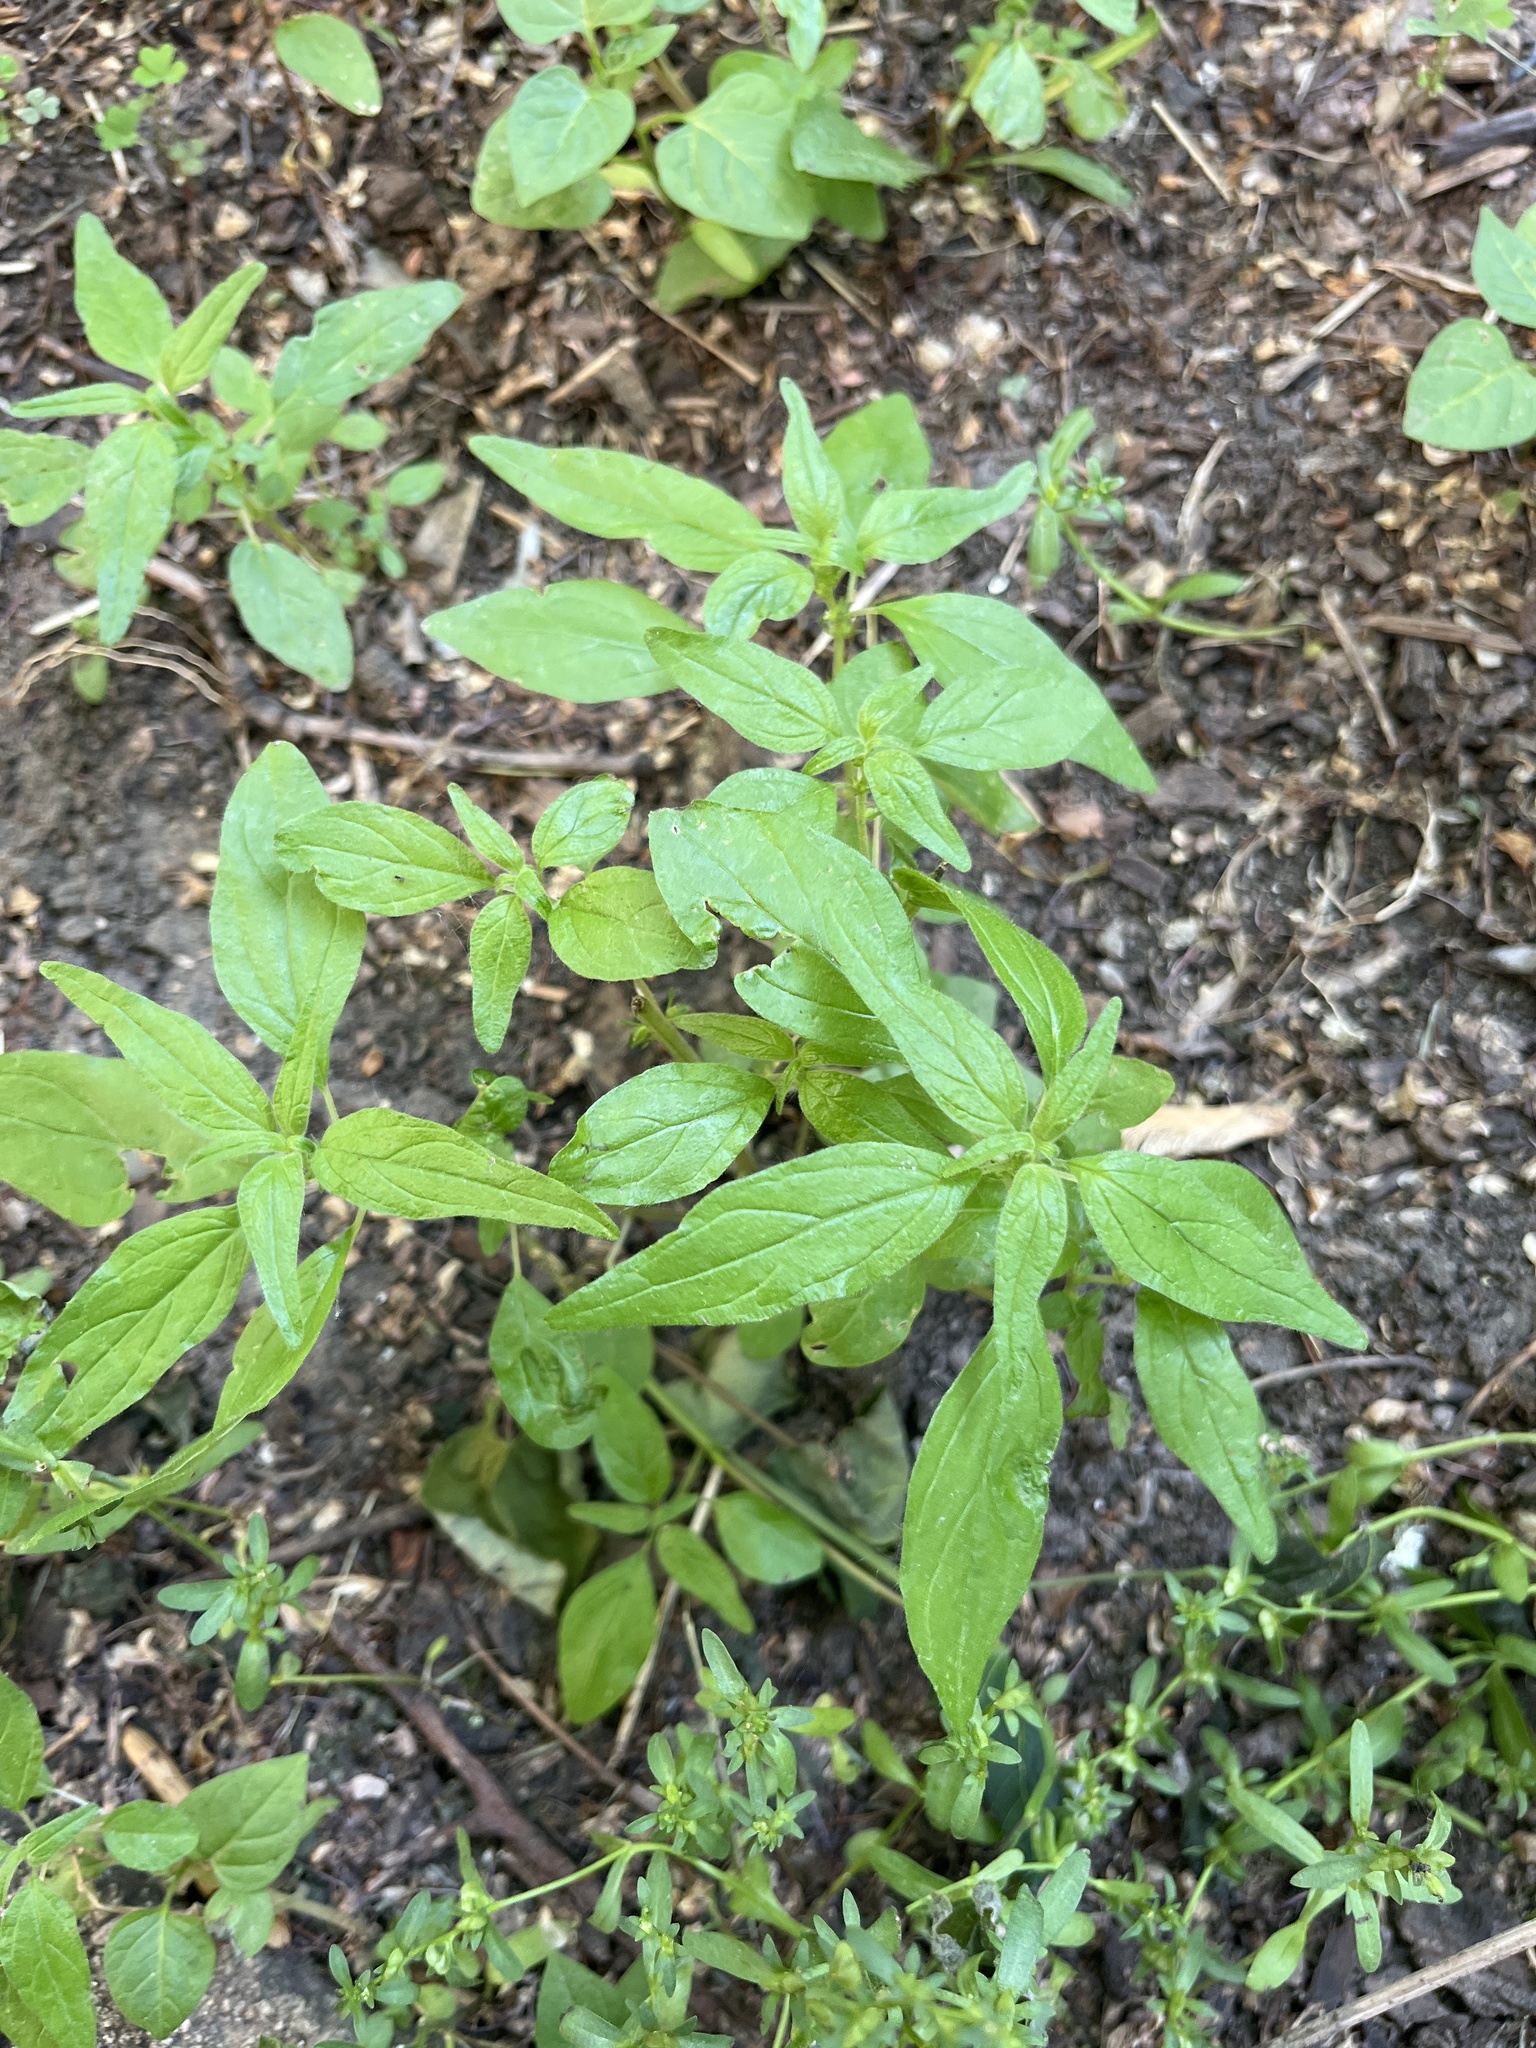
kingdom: Plantae
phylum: Tracheophyta
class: Magnoliopsida
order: Rosales
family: Urticaceae
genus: Parietaria
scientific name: Parietaria pensylvanica
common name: Pennsylvania pellitory
